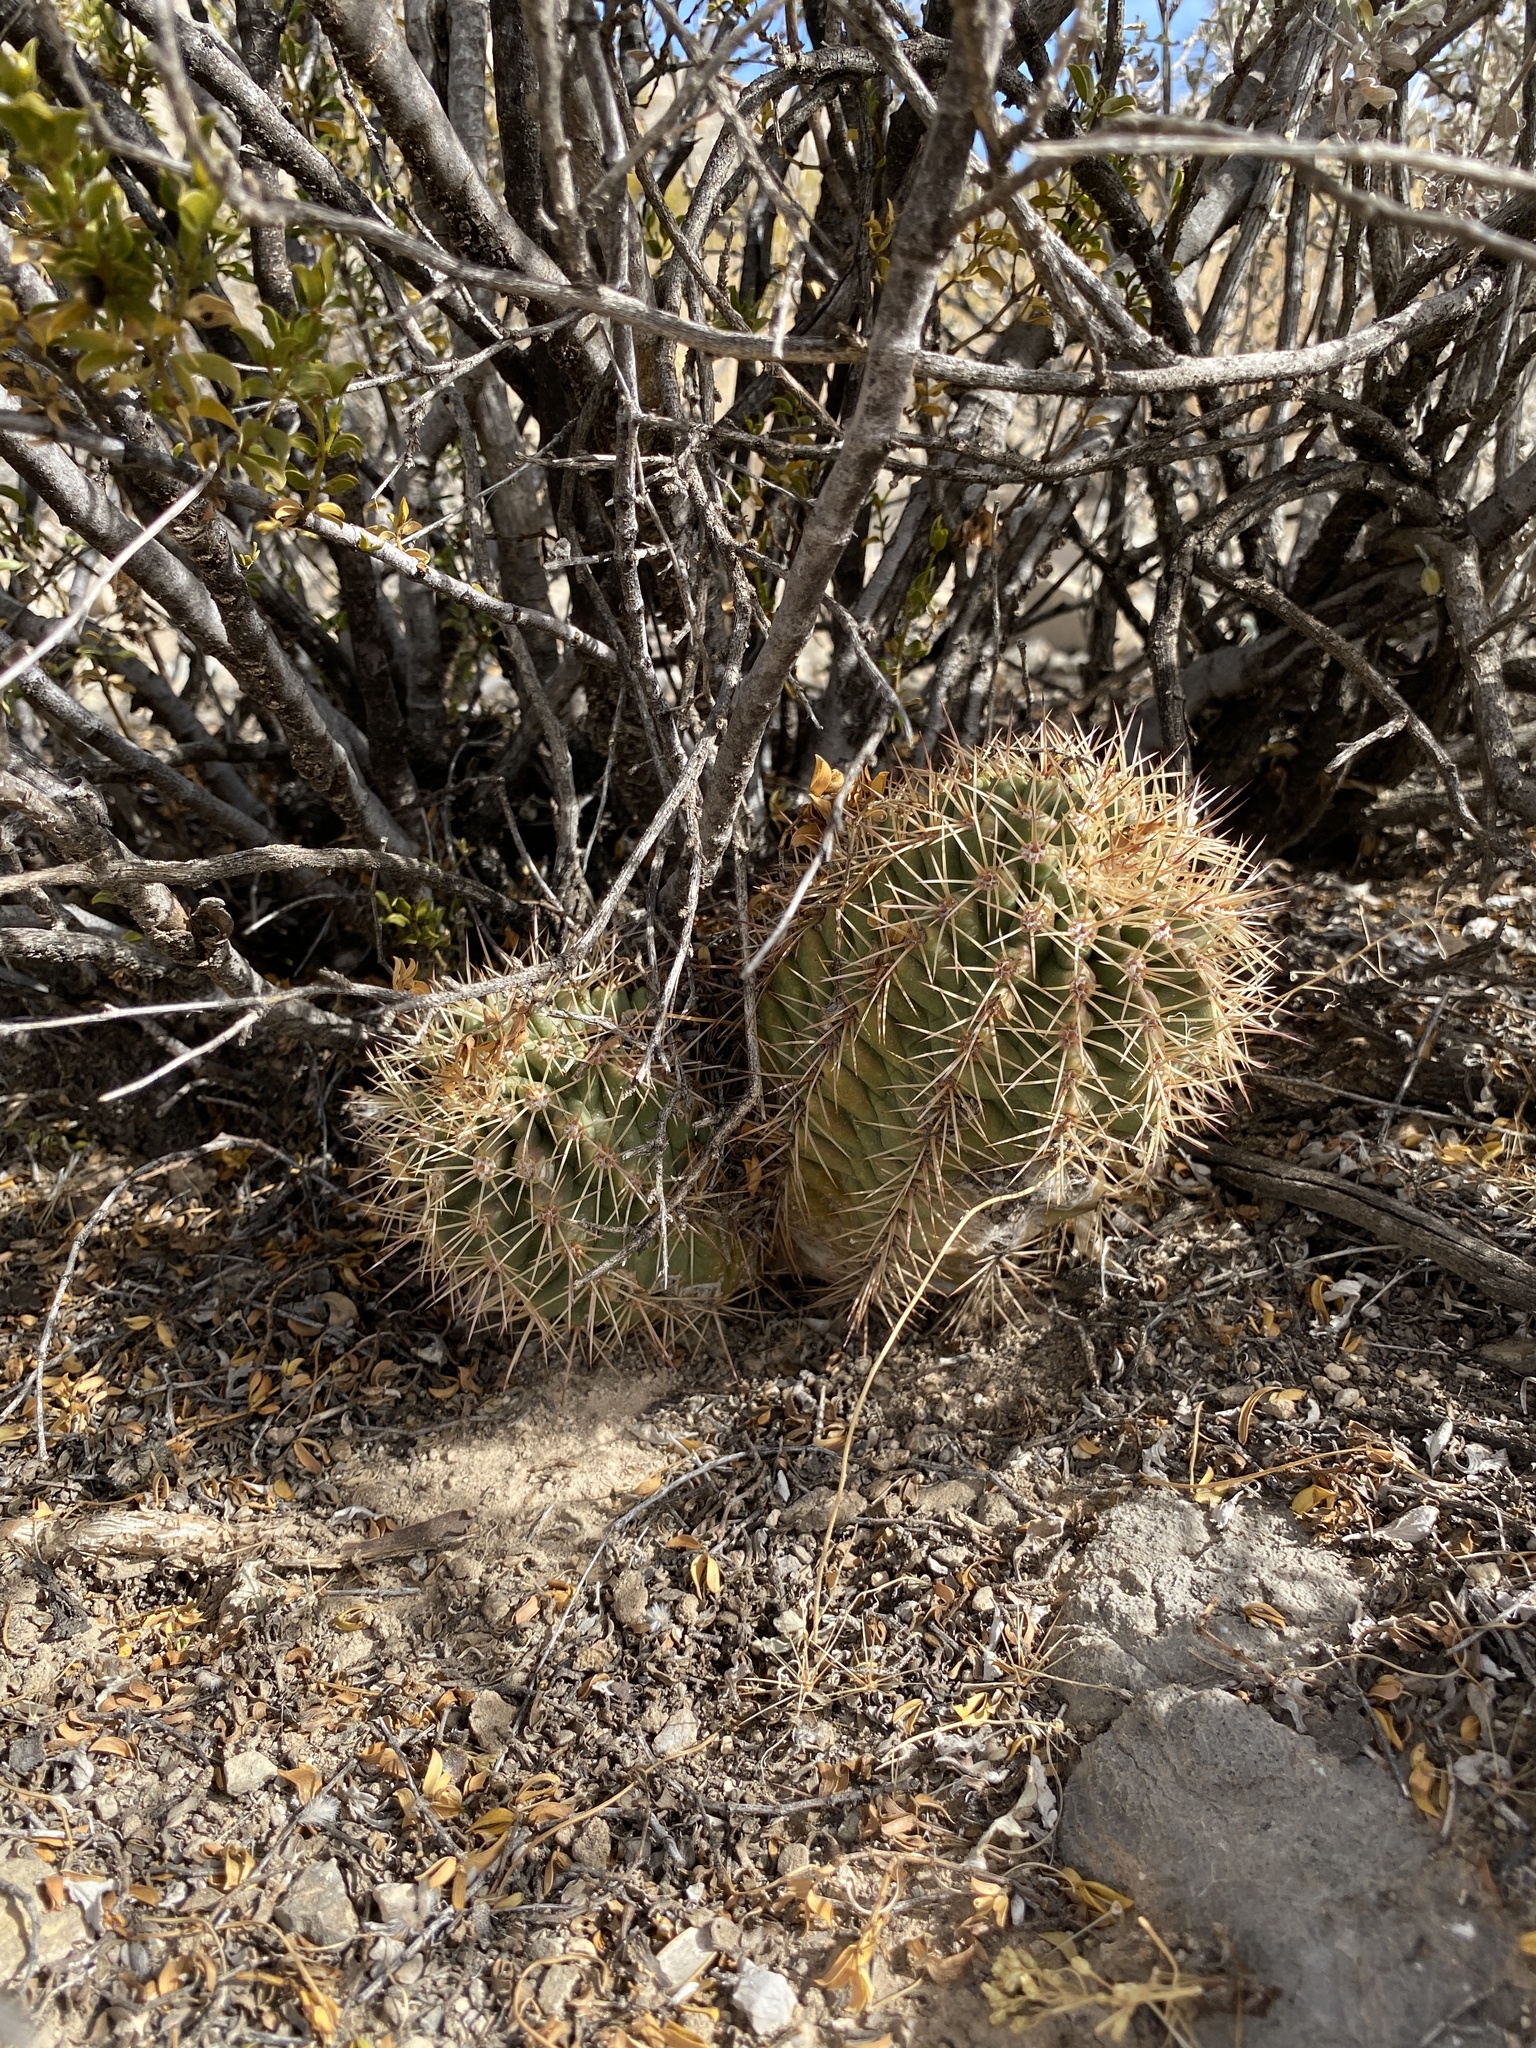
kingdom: Plantae
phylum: Tracheophyta
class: Magnoliopsida
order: Caryophyllales
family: Cactaceae
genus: Echinocereus
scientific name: Echinocereus coccineus
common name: Scarlet hedgehog cactus
